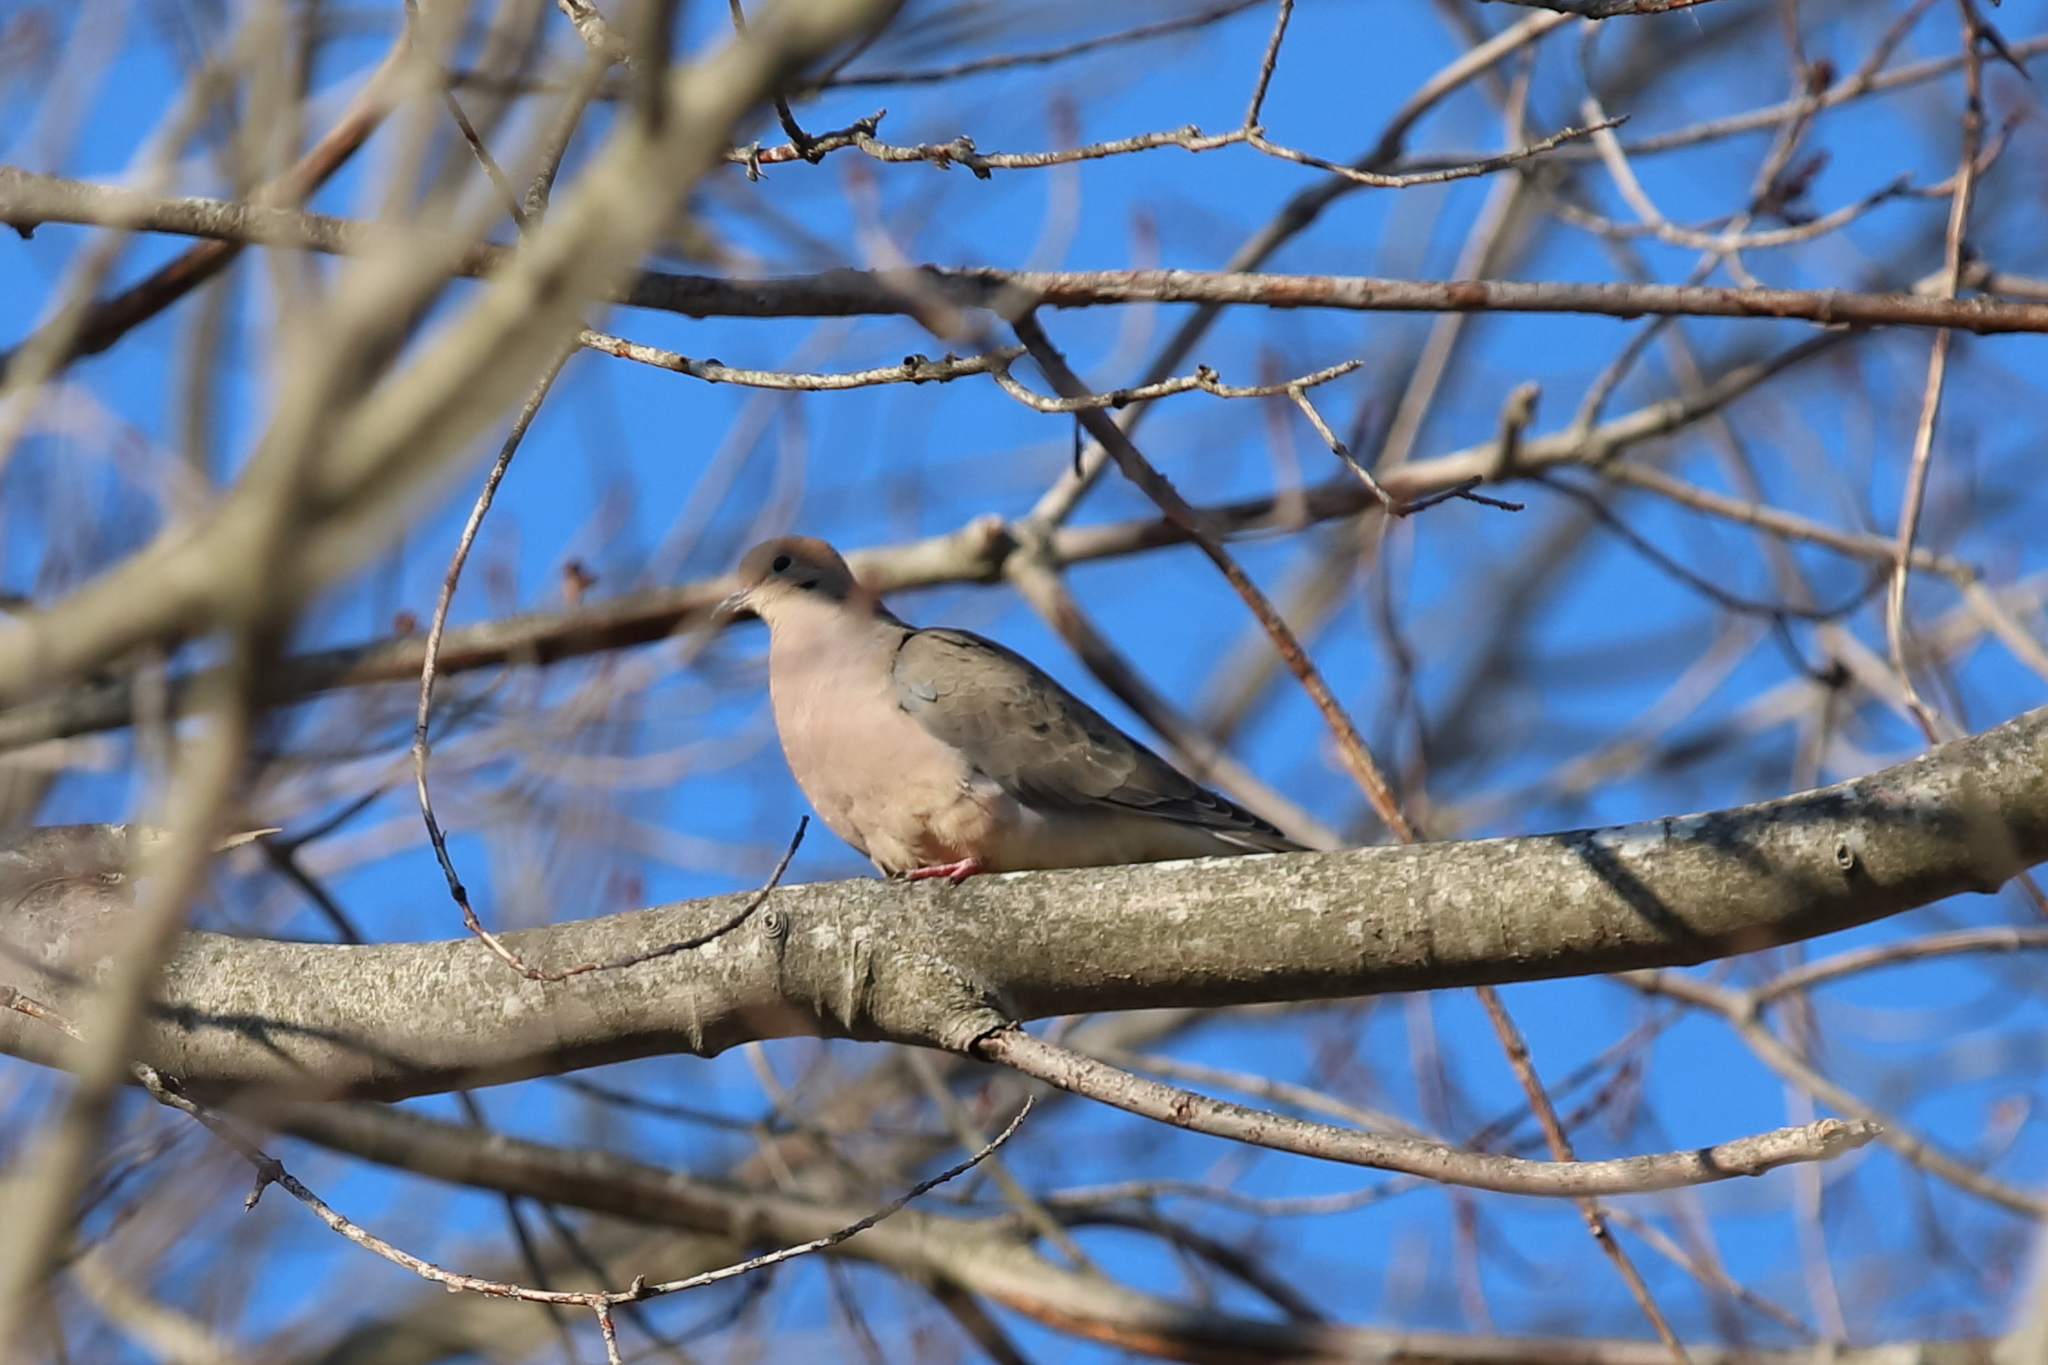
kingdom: Animalia
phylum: Chordata
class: Aves
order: Columbiformes
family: Columbidae
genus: Zenaida
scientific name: Zenaida macroura
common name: Mourning dove
